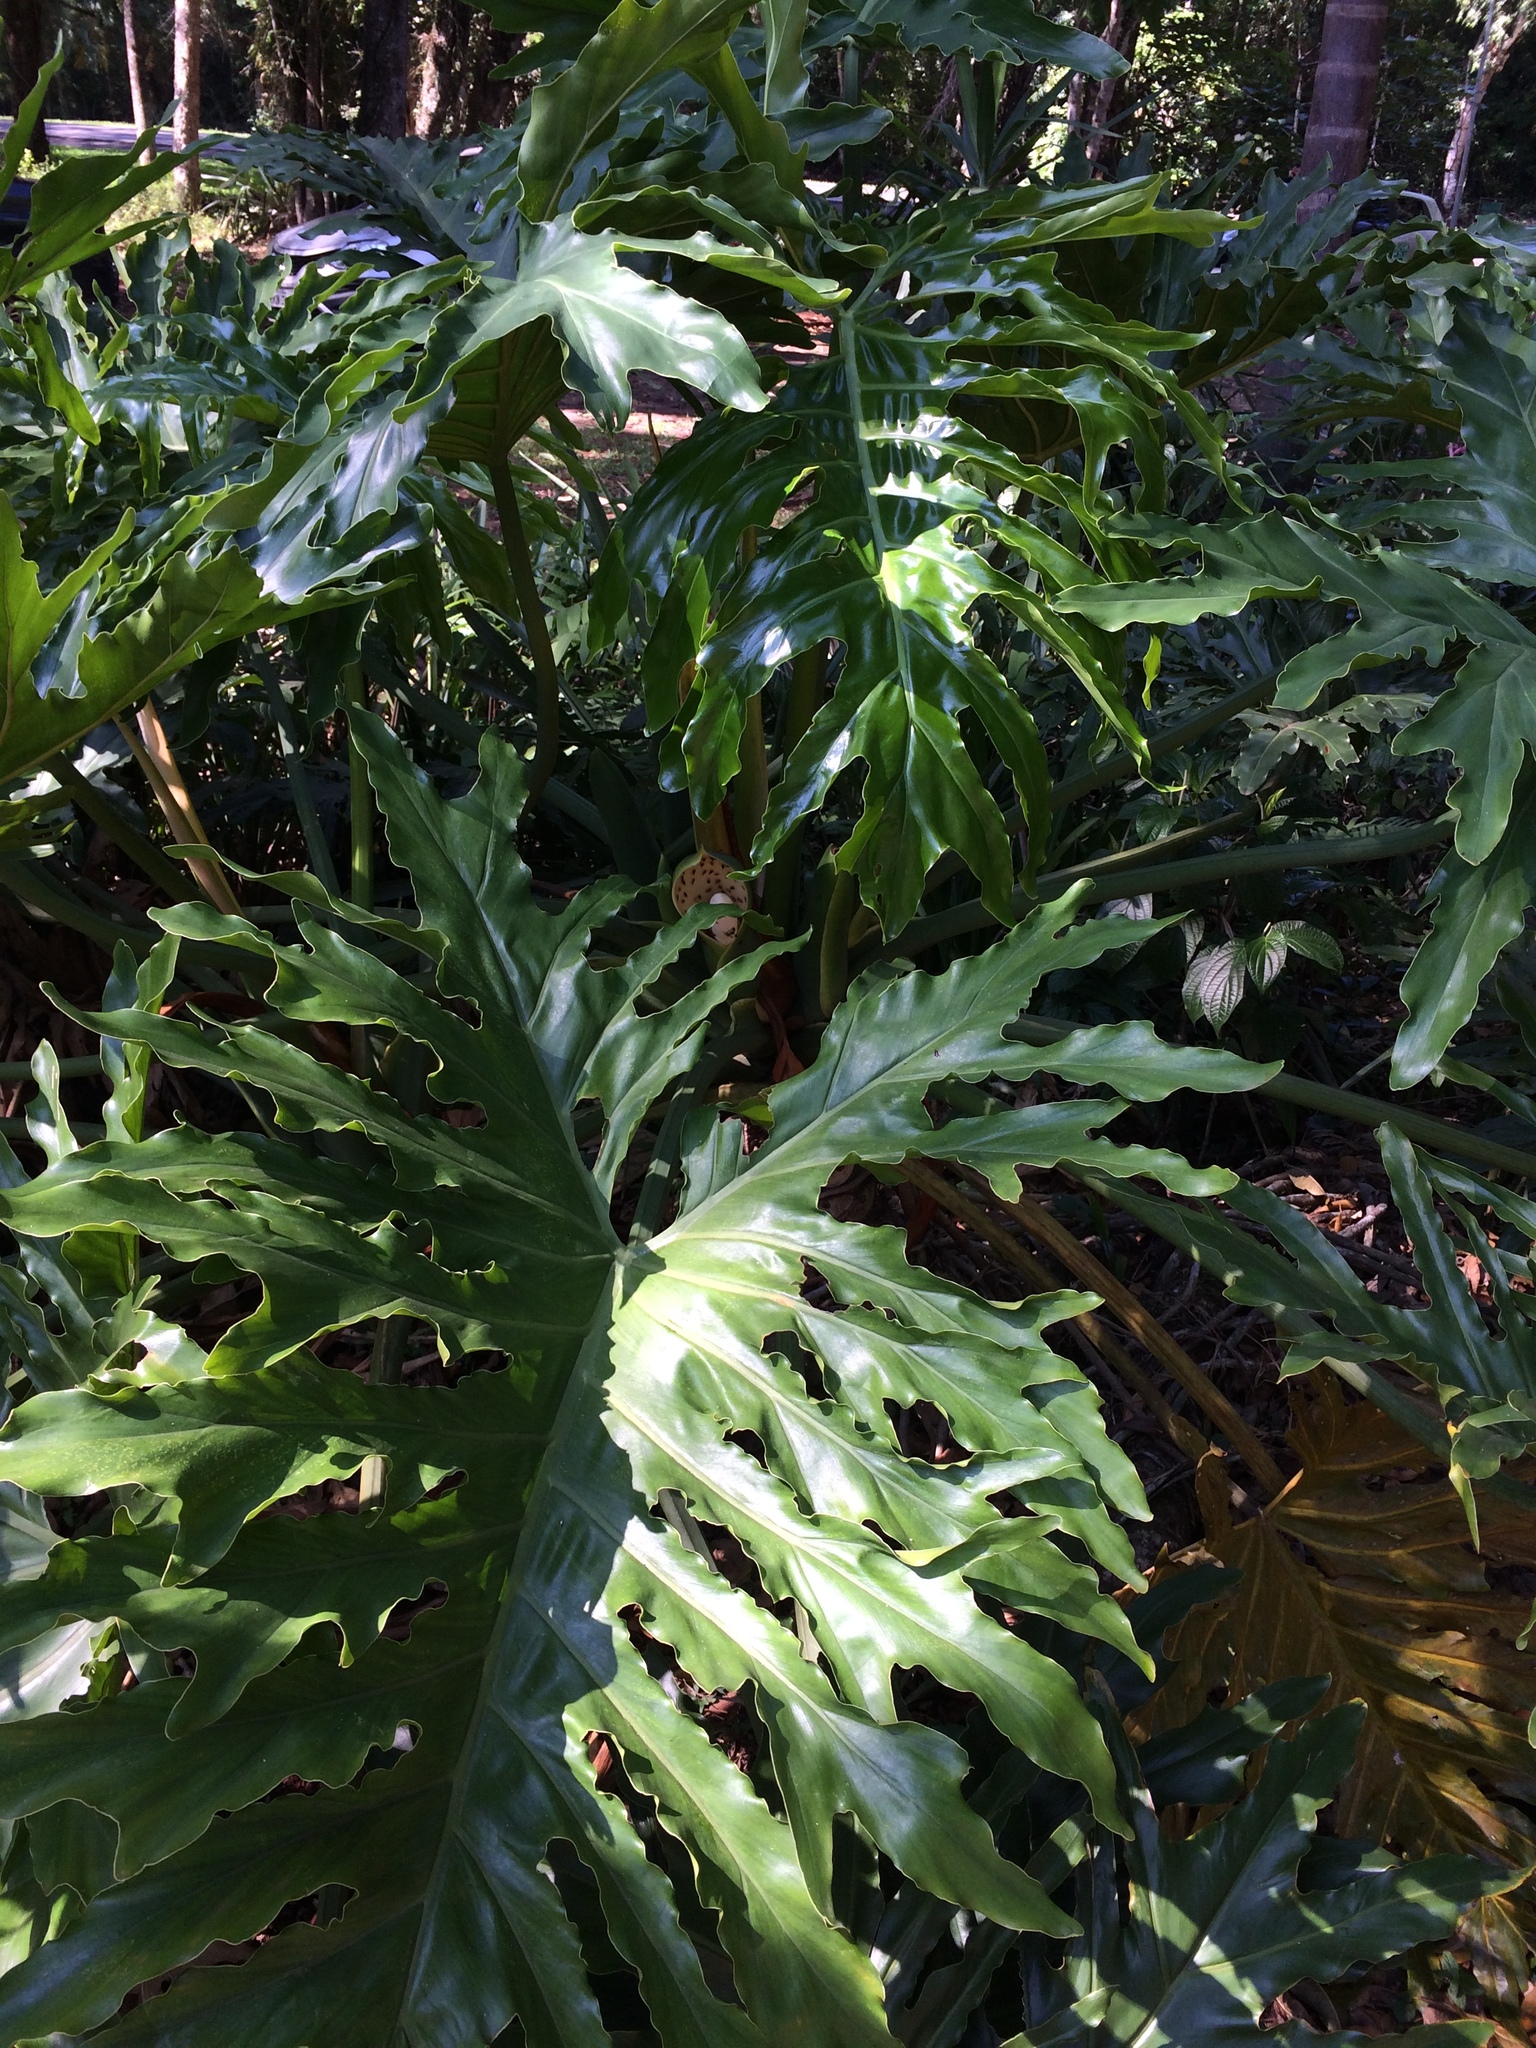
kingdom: Plantae
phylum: Tracheophyta
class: Liliopsida
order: Alismatales
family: Araceae
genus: Thaumatophyllum
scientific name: Thaumatophyllum bipinnatifidum
